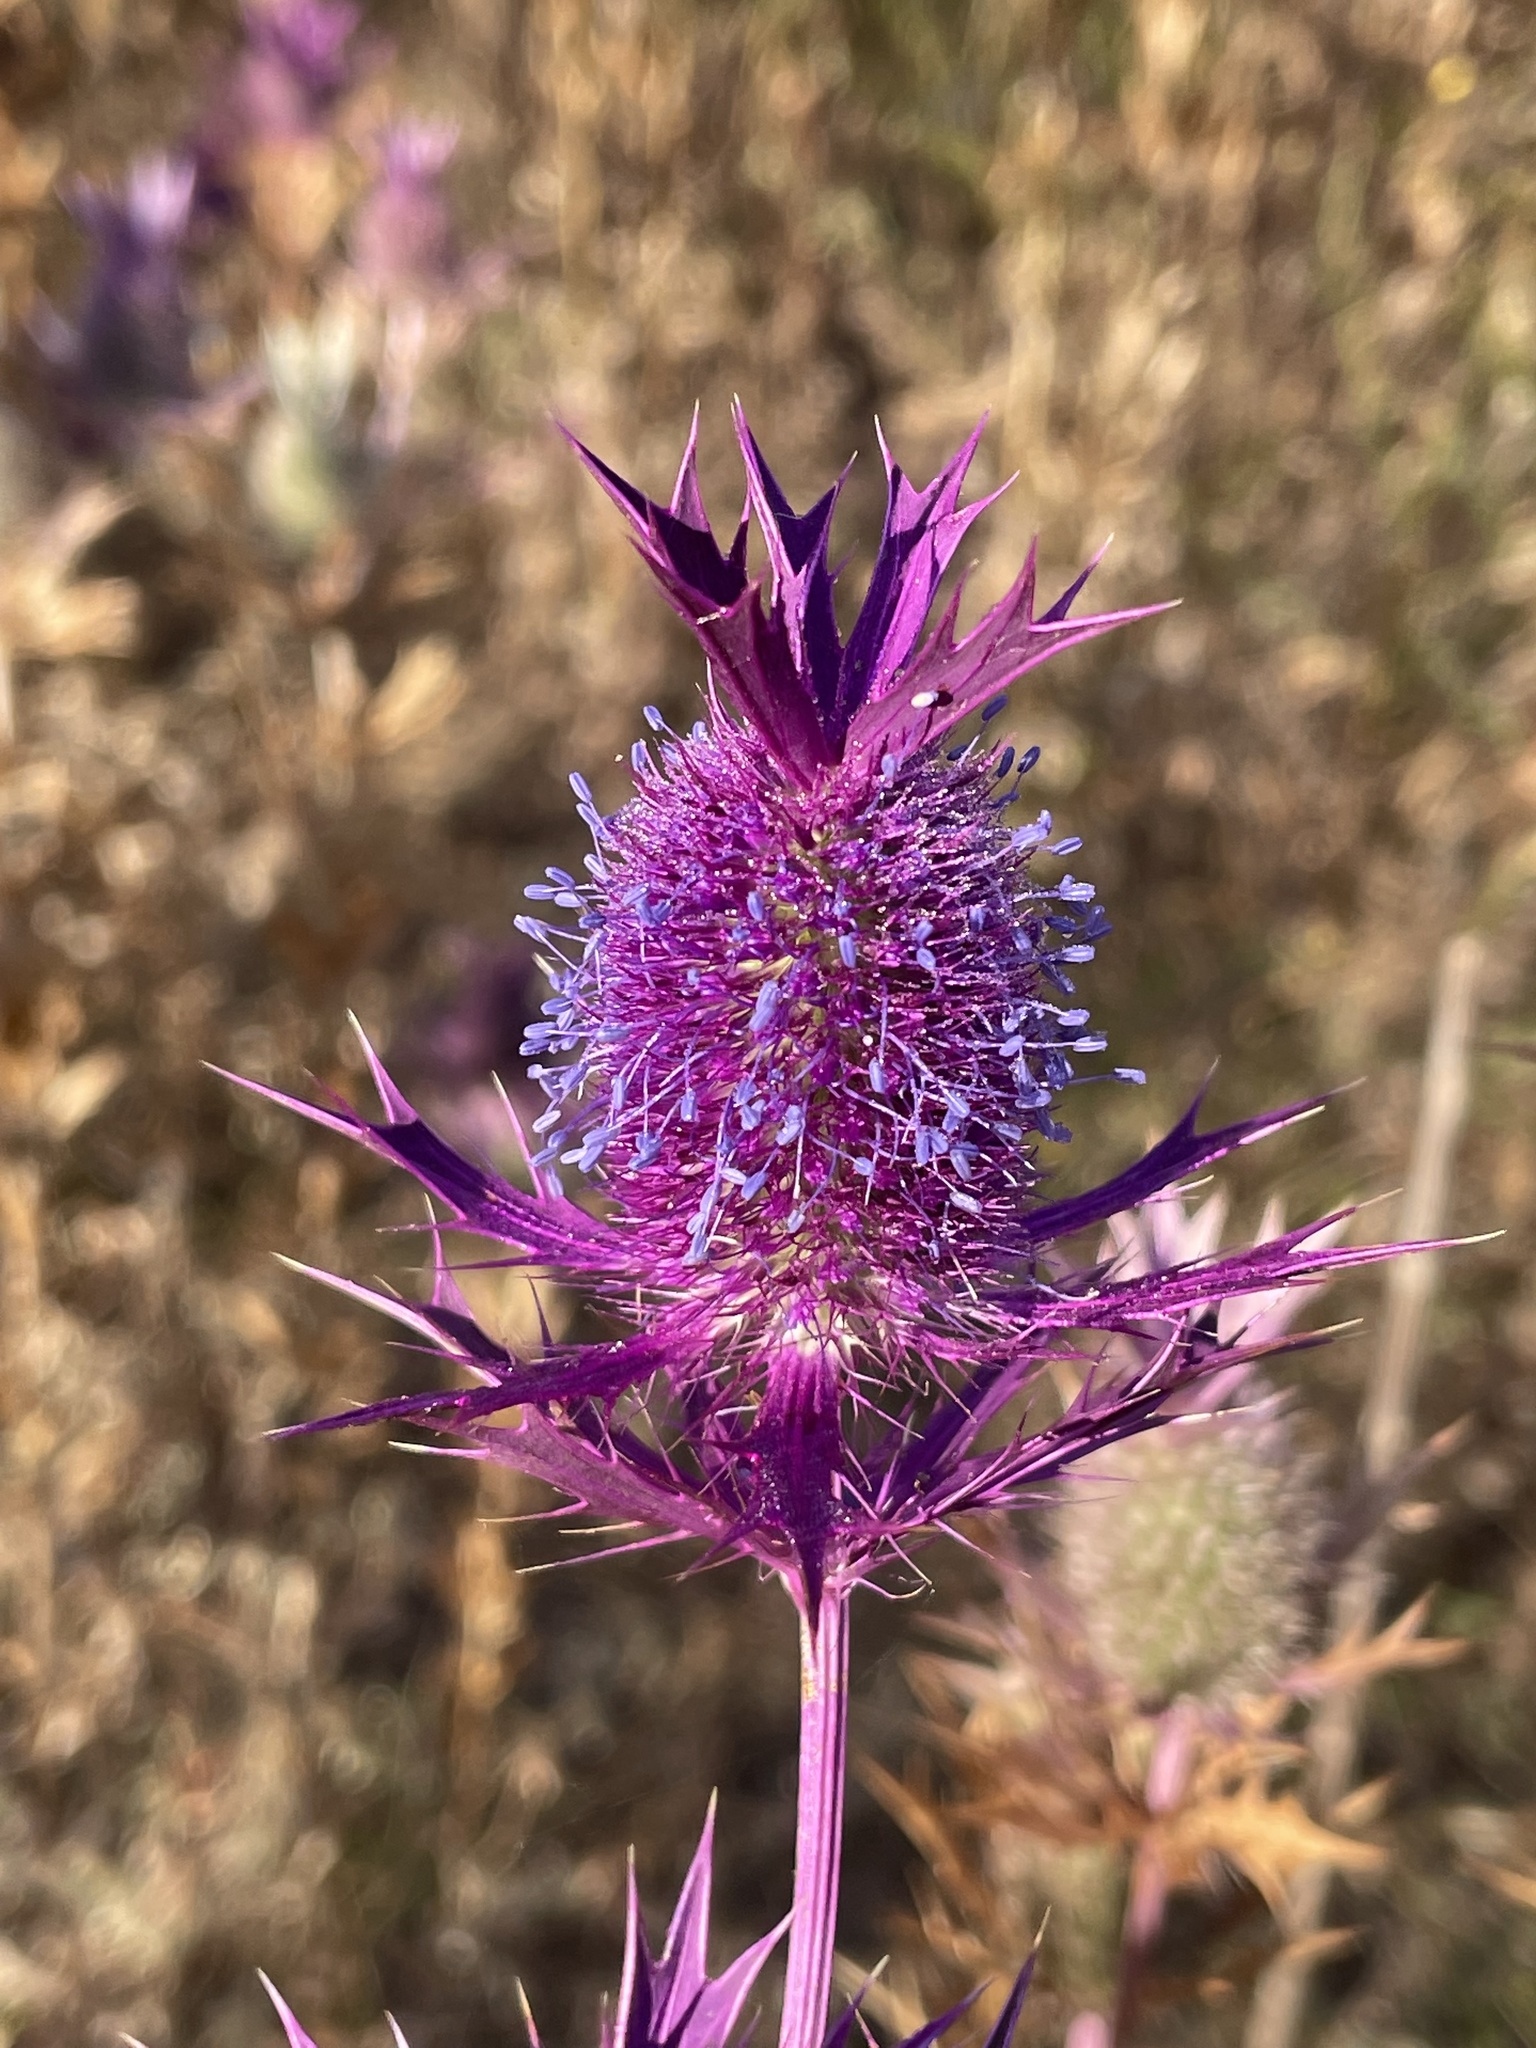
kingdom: Plantae
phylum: Tracheophyta
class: Magnoliopsida
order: Apiales
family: Apiaceae
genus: Eryngium
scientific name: Eryngium leavenworthii
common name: Leavenworth's eryngo
